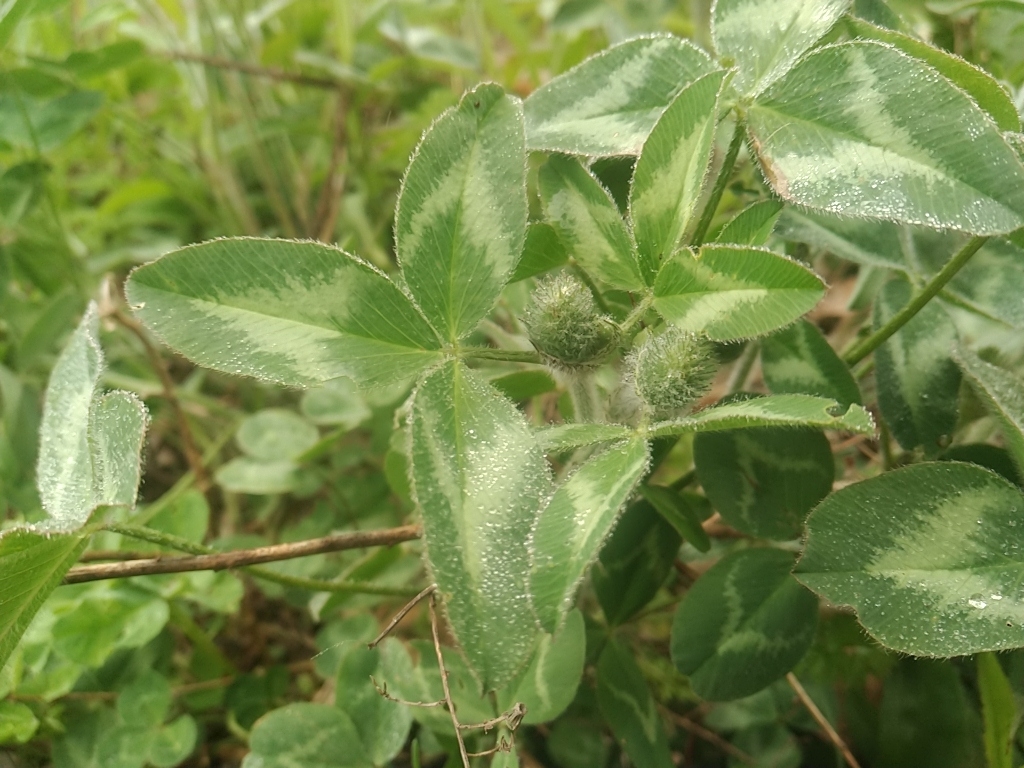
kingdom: Plantae
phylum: Tracheophyta
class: Magnoliopsida
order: Fabales
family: Fabaceae
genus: Trifolium
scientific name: Trifolium pratense
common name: Red clover
